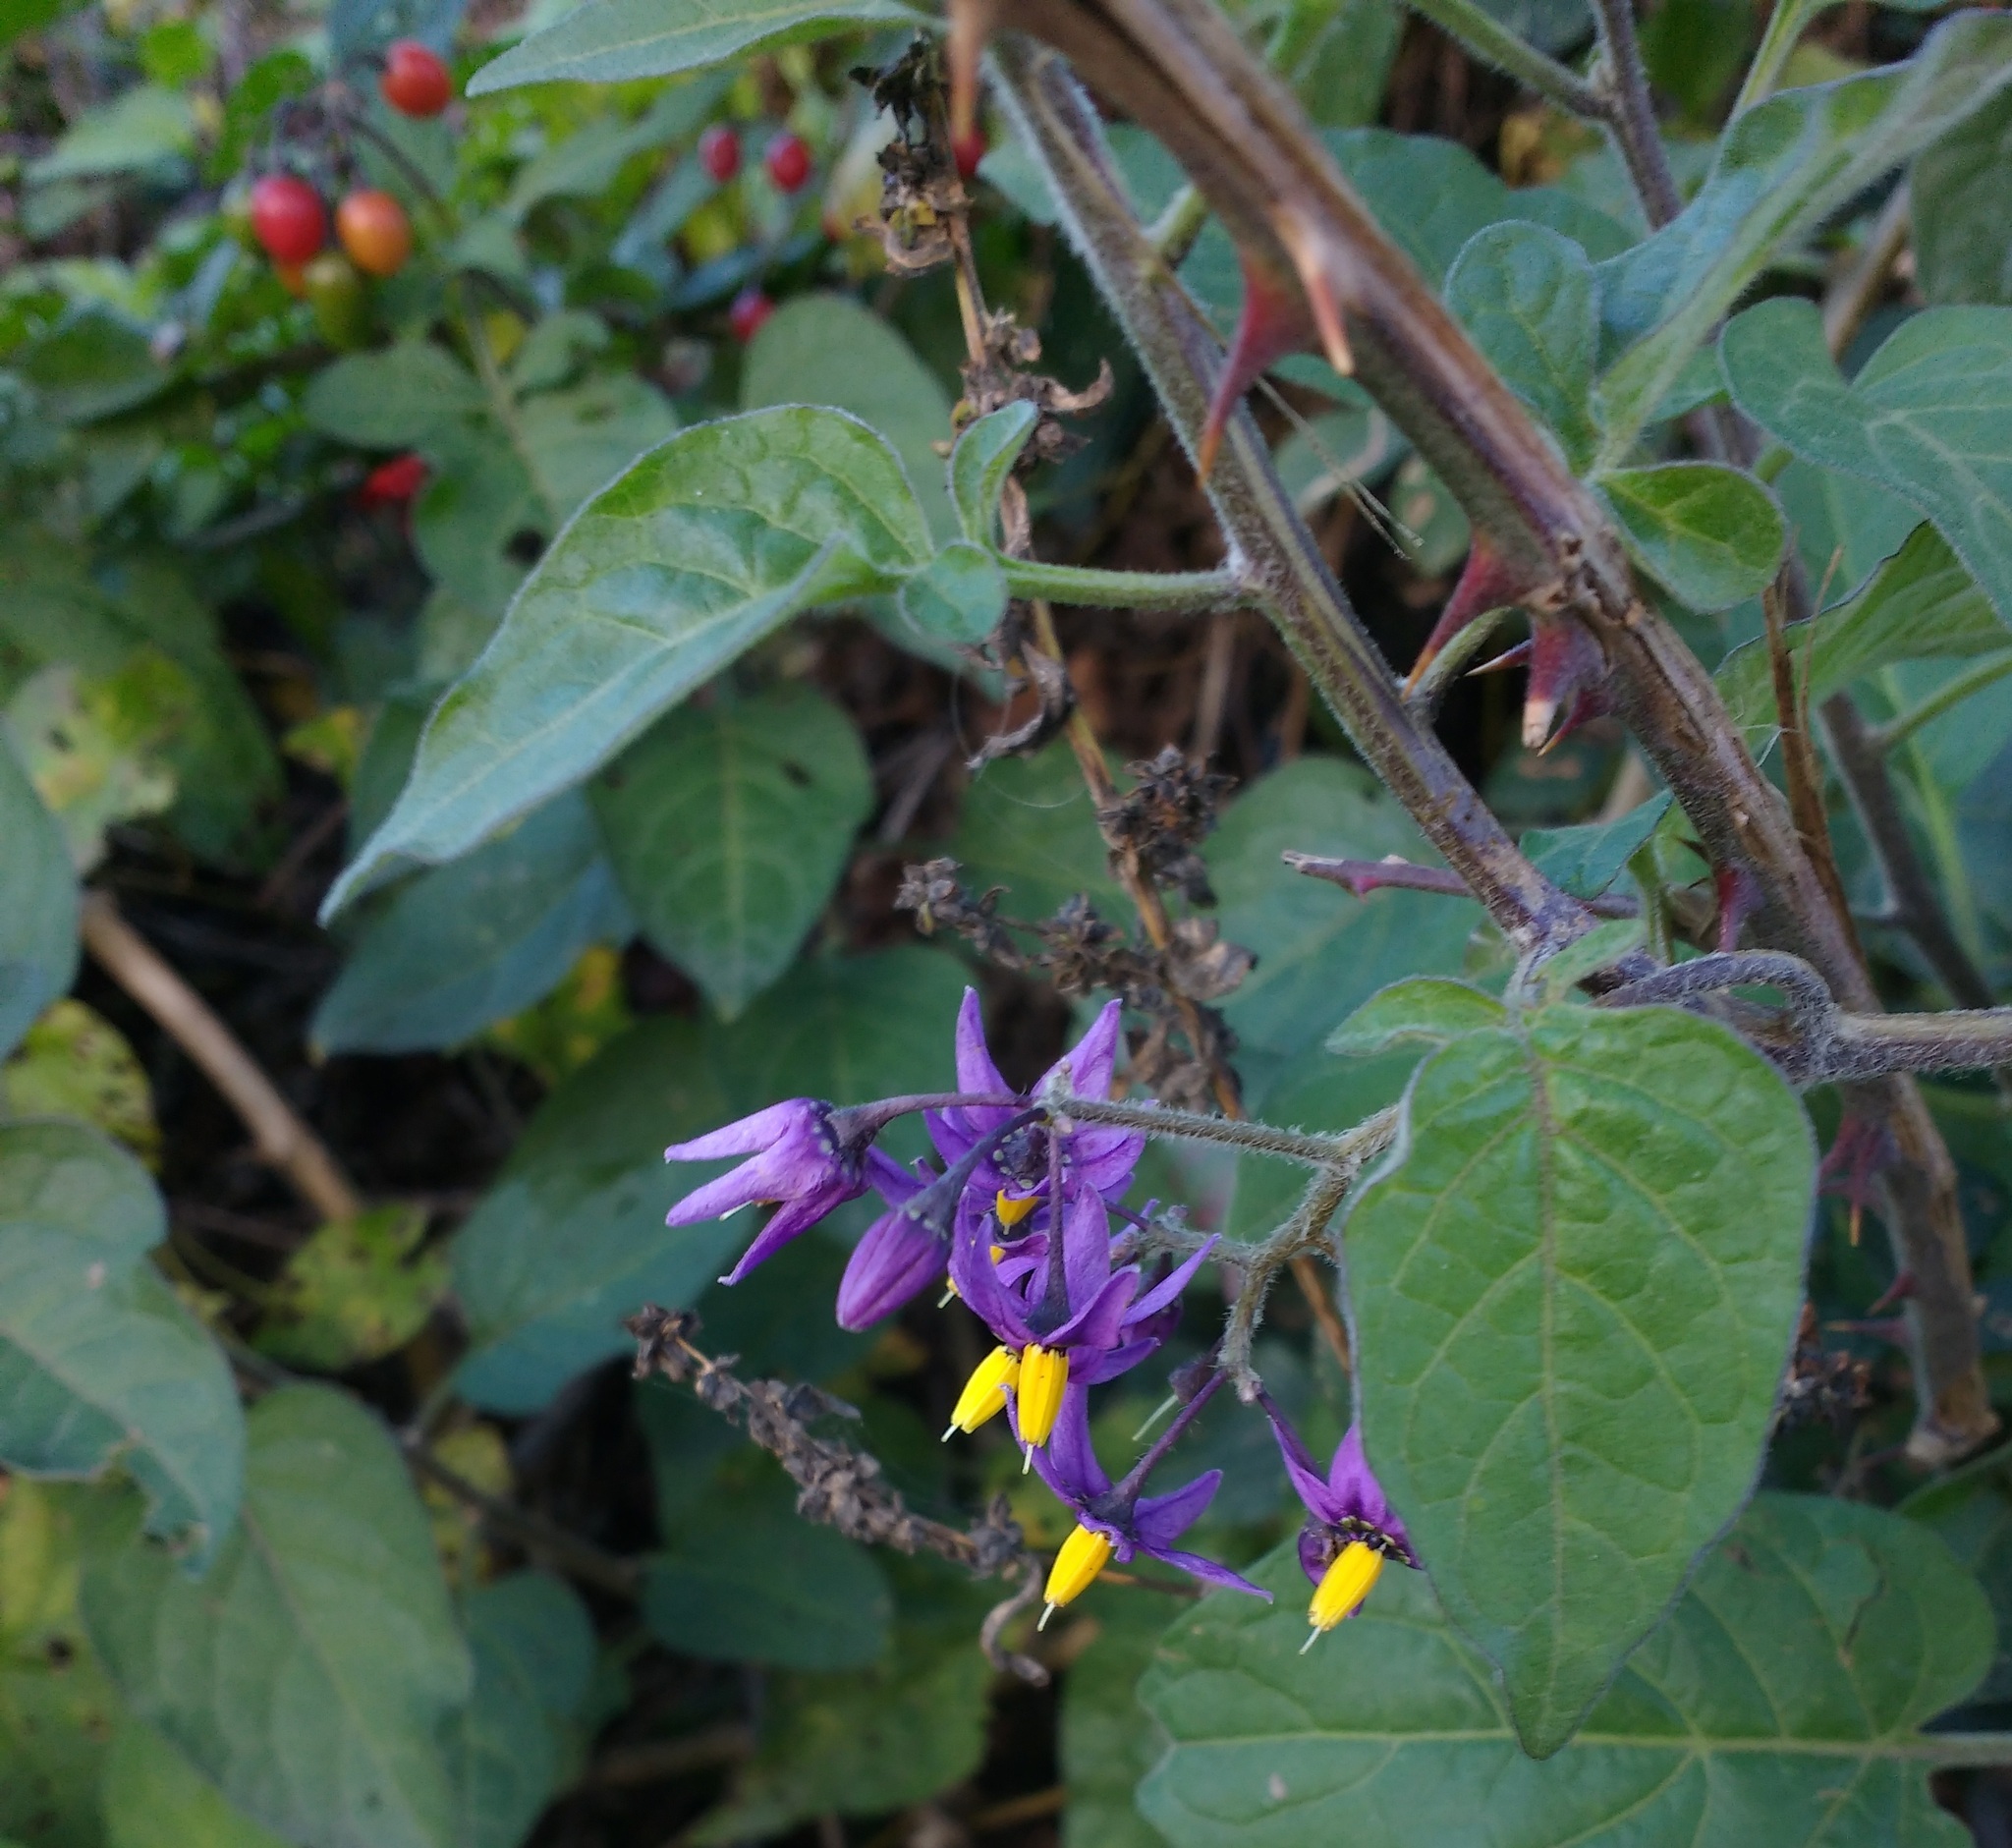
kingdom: Plantae
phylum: Tracheophyta
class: Magnoliopsida
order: Solanales
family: Solanaceae
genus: Solanum
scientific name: Solanum dulcamara
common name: Climbing nightshade
